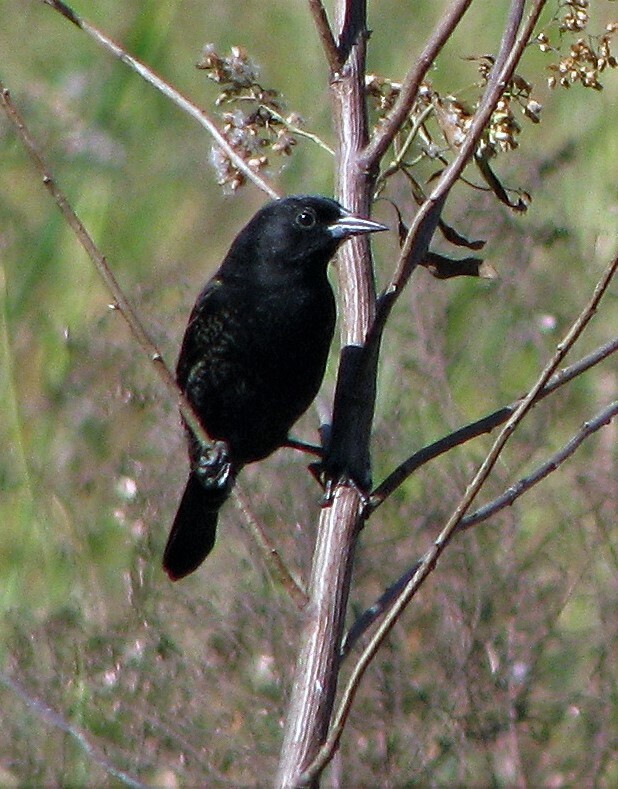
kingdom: Animalia
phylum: Chordata
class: Aves
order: Passeriformes
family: Icteridae
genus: Agelasticus
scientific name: Agelasticus thilius
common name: Yellow-winged blackbird
